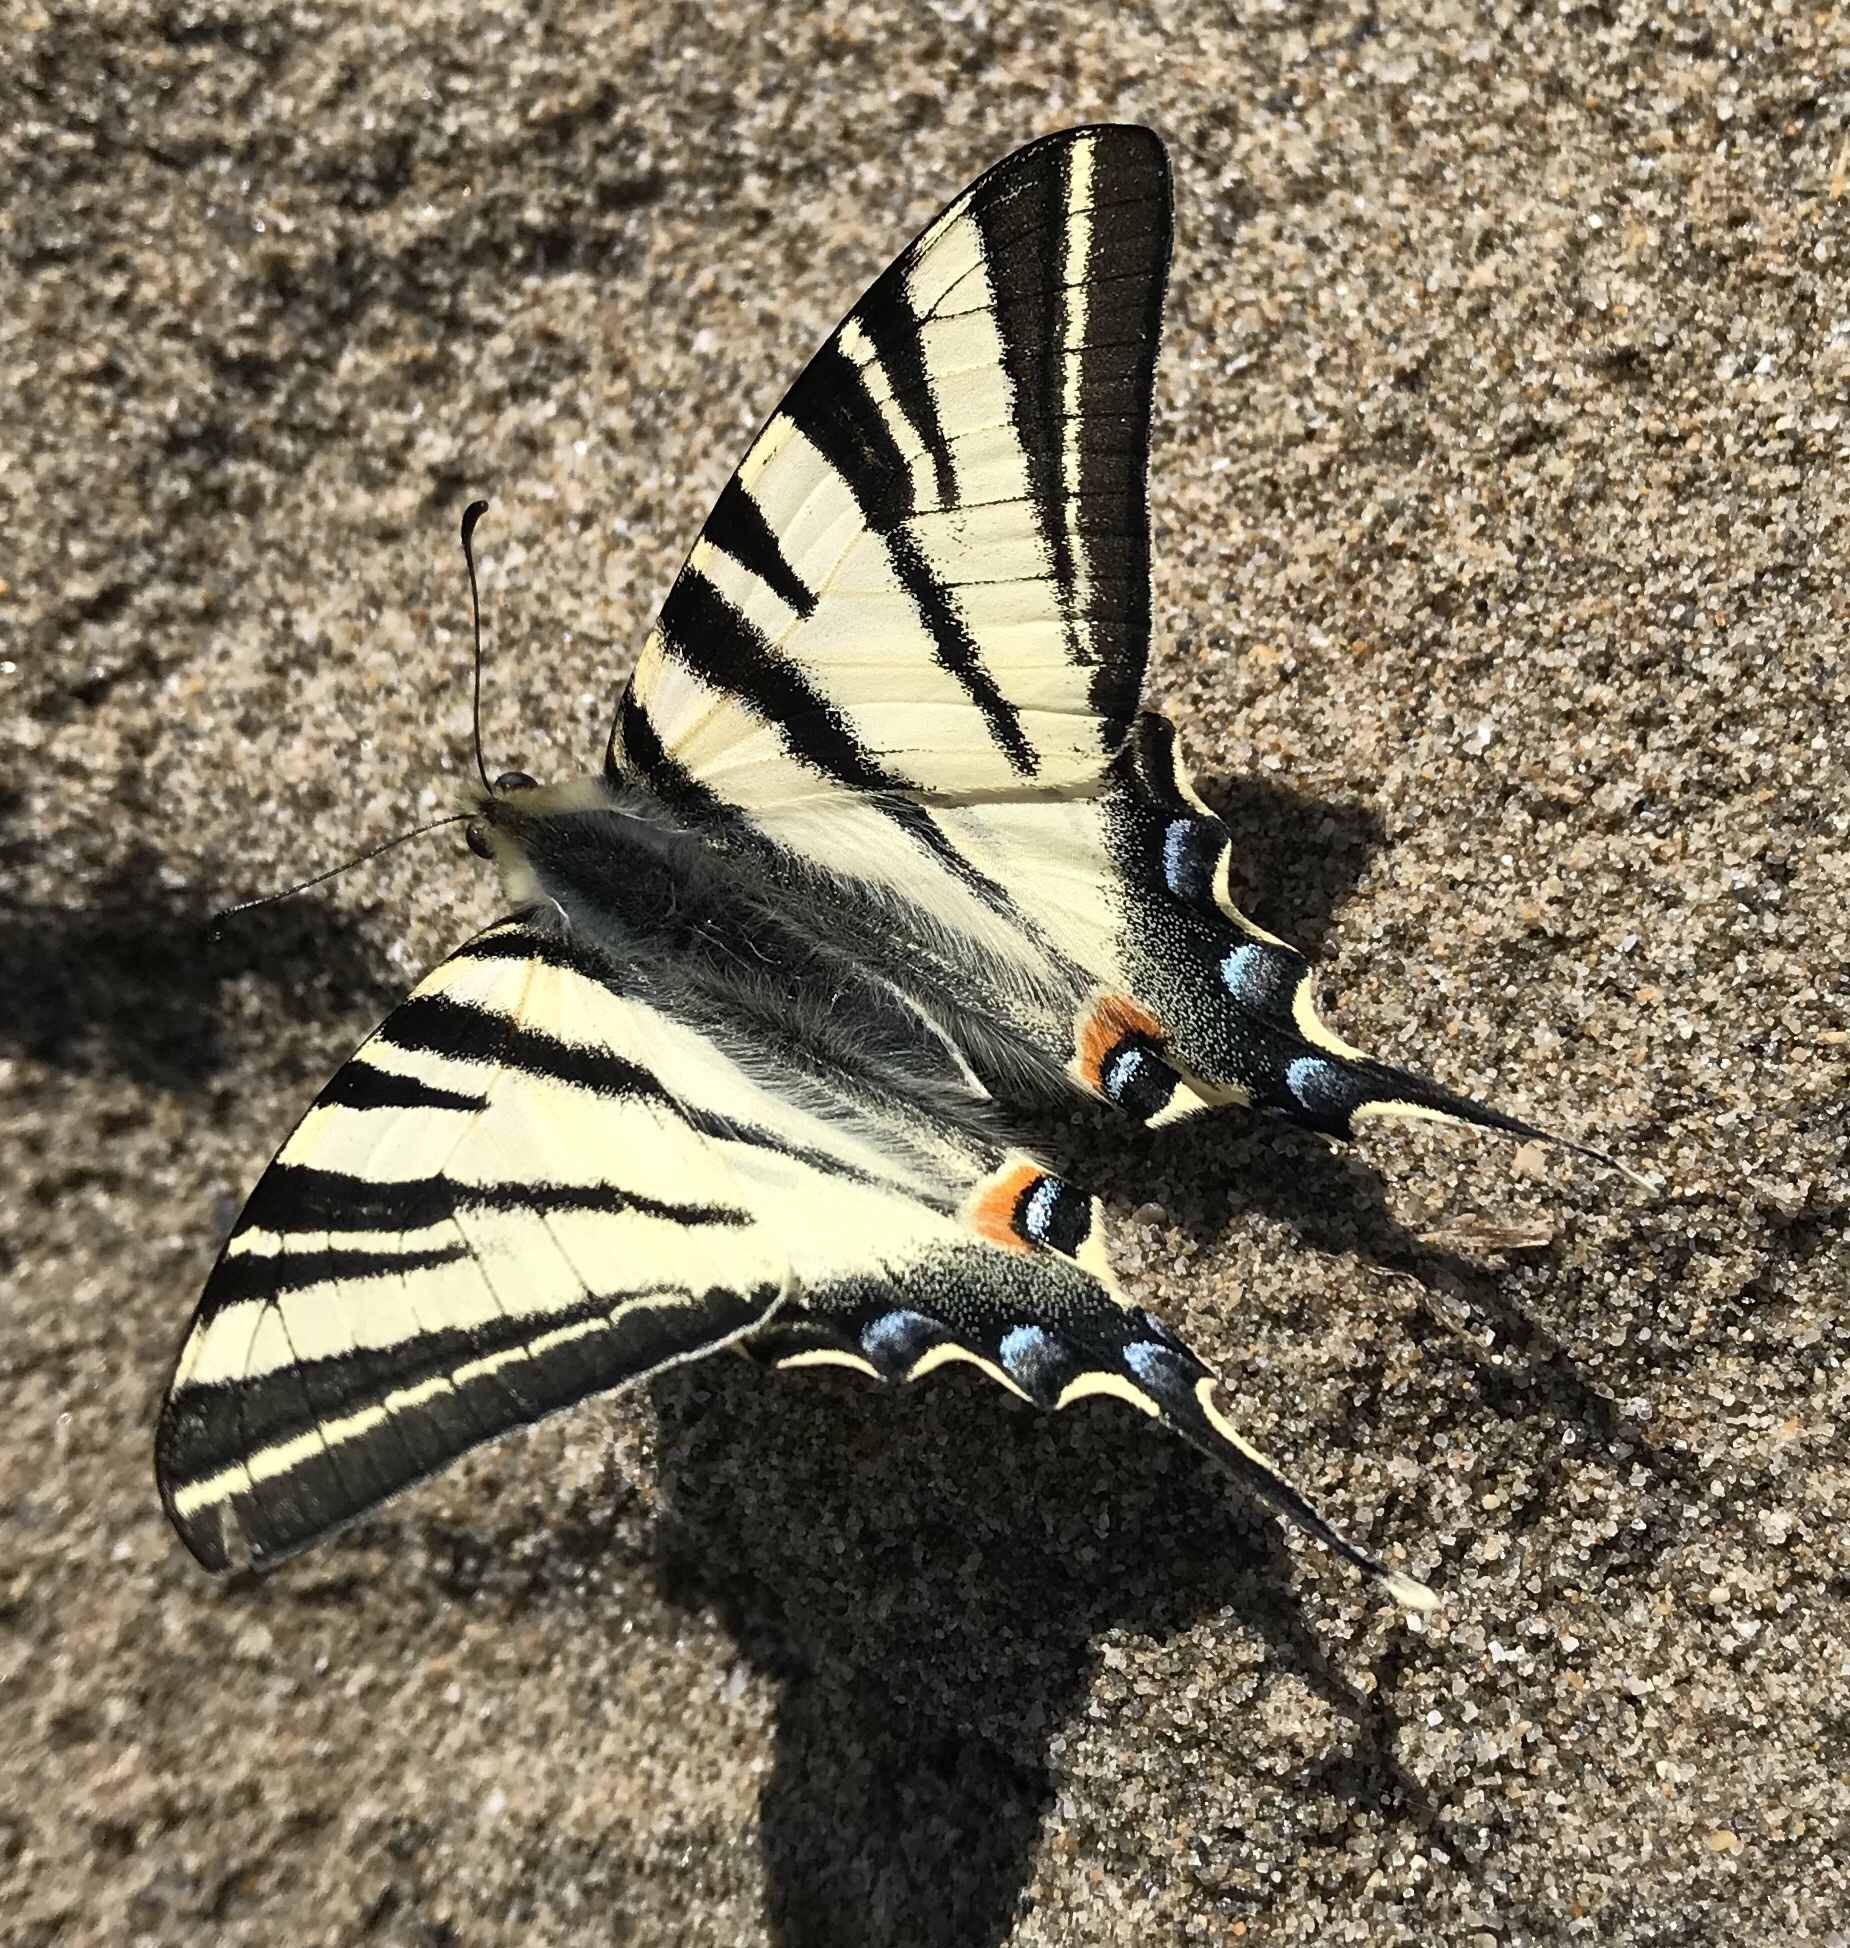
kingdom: Animalia
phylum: Arthropoda
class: Insecta
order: Lepidoptera
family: Papilionidae
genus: Iphiclides
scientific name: Iphiclides podalirius
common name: Scarce swallowtail
